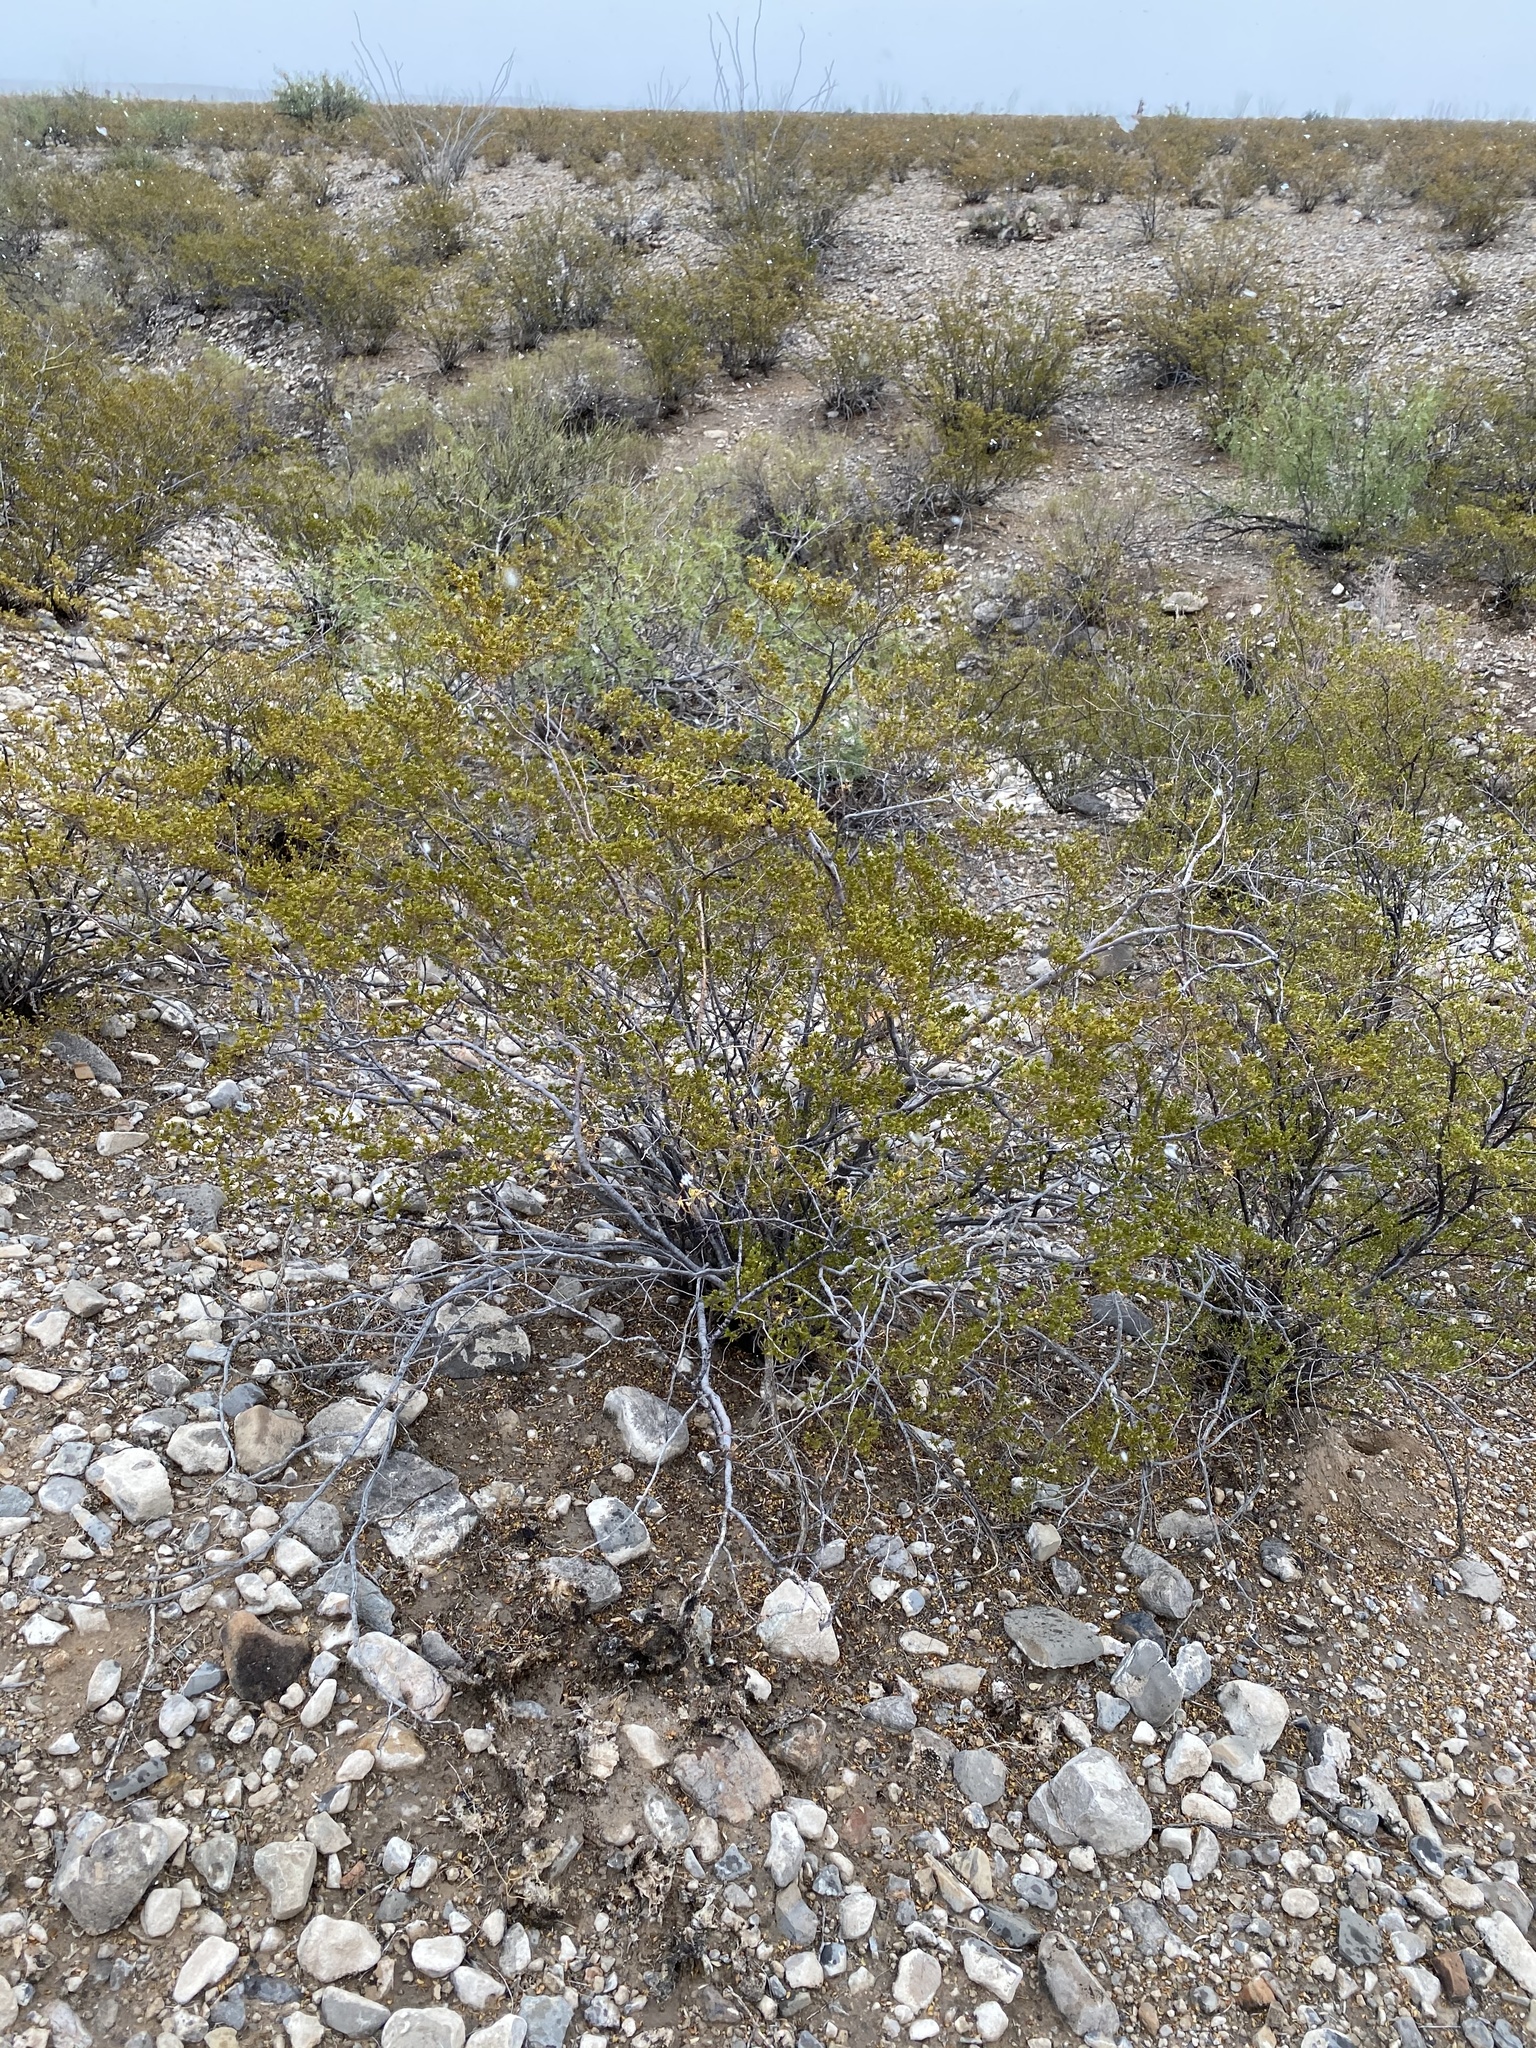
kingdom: Plantae
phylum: Tracheophyta
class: Magnoliopsida
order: Zygophyllales
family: Zygophyllaceae
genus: Larrea
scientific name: Larrea tridentata
